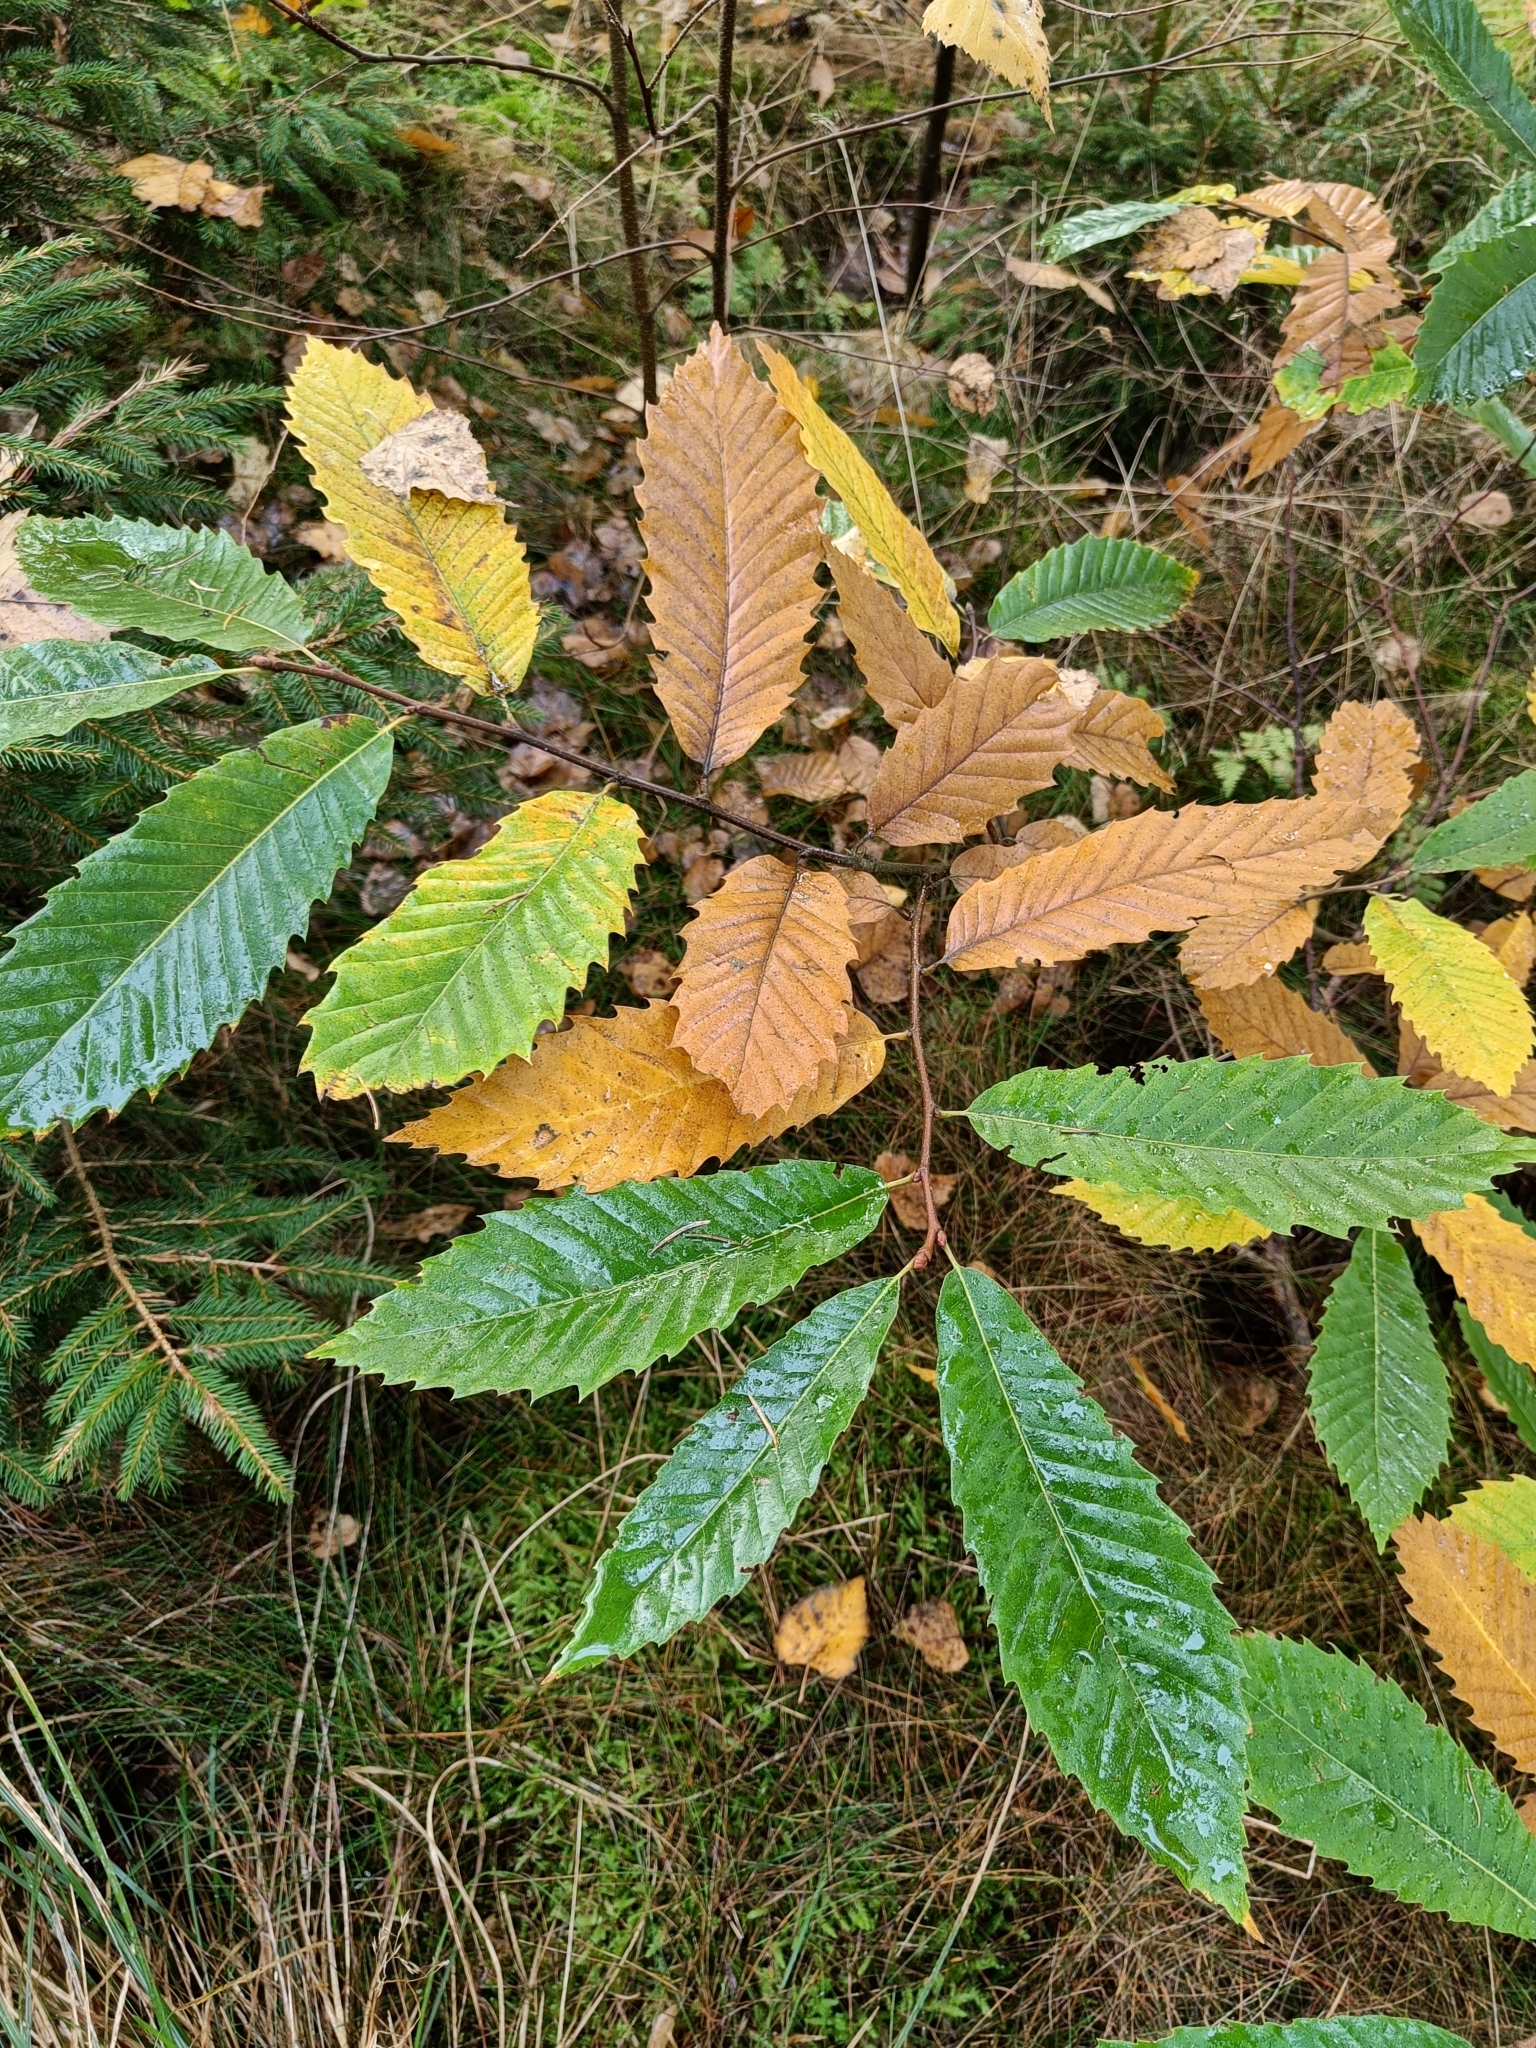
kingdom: Plantae
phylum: Tracheophyta
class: Magnoliopsida
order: Fagales
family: Fagaceae
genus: Castanea
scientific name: Castanea sativa
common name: Sweet chestnut
